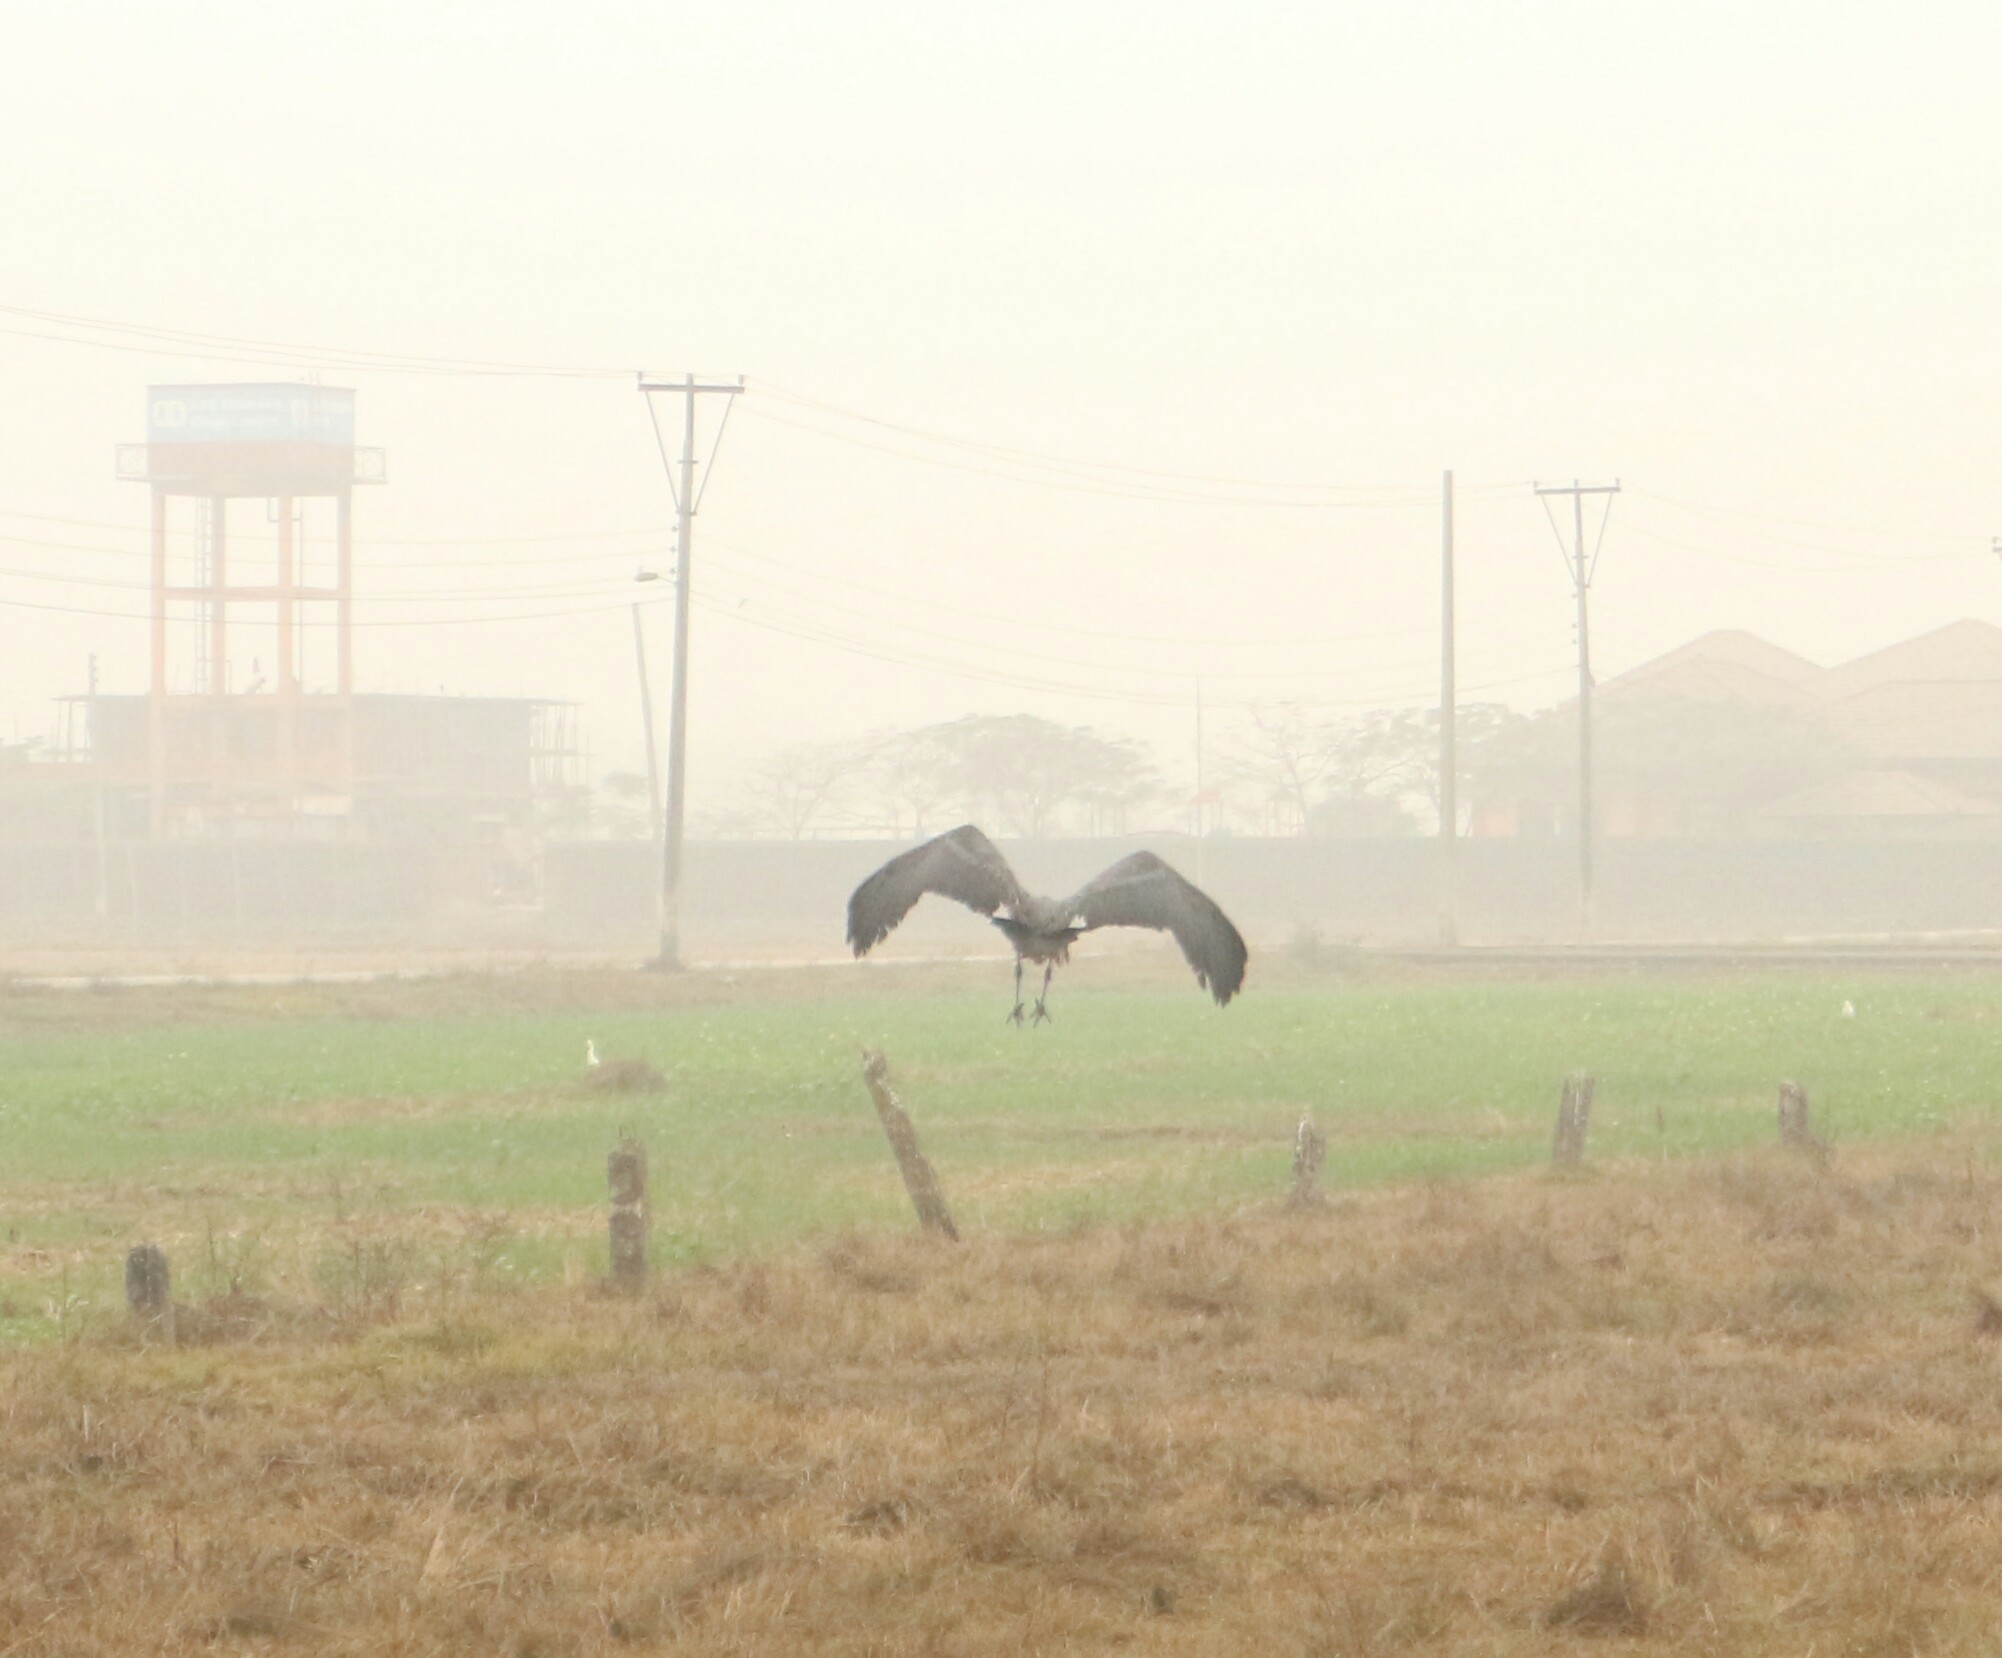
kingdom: Animalia
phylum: Chordata
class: Aves
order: Ciconiiformes
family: Ciconiidae
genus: Leptoptilos
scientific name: Leptoptilos javanicus
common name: Lesser adjutant
